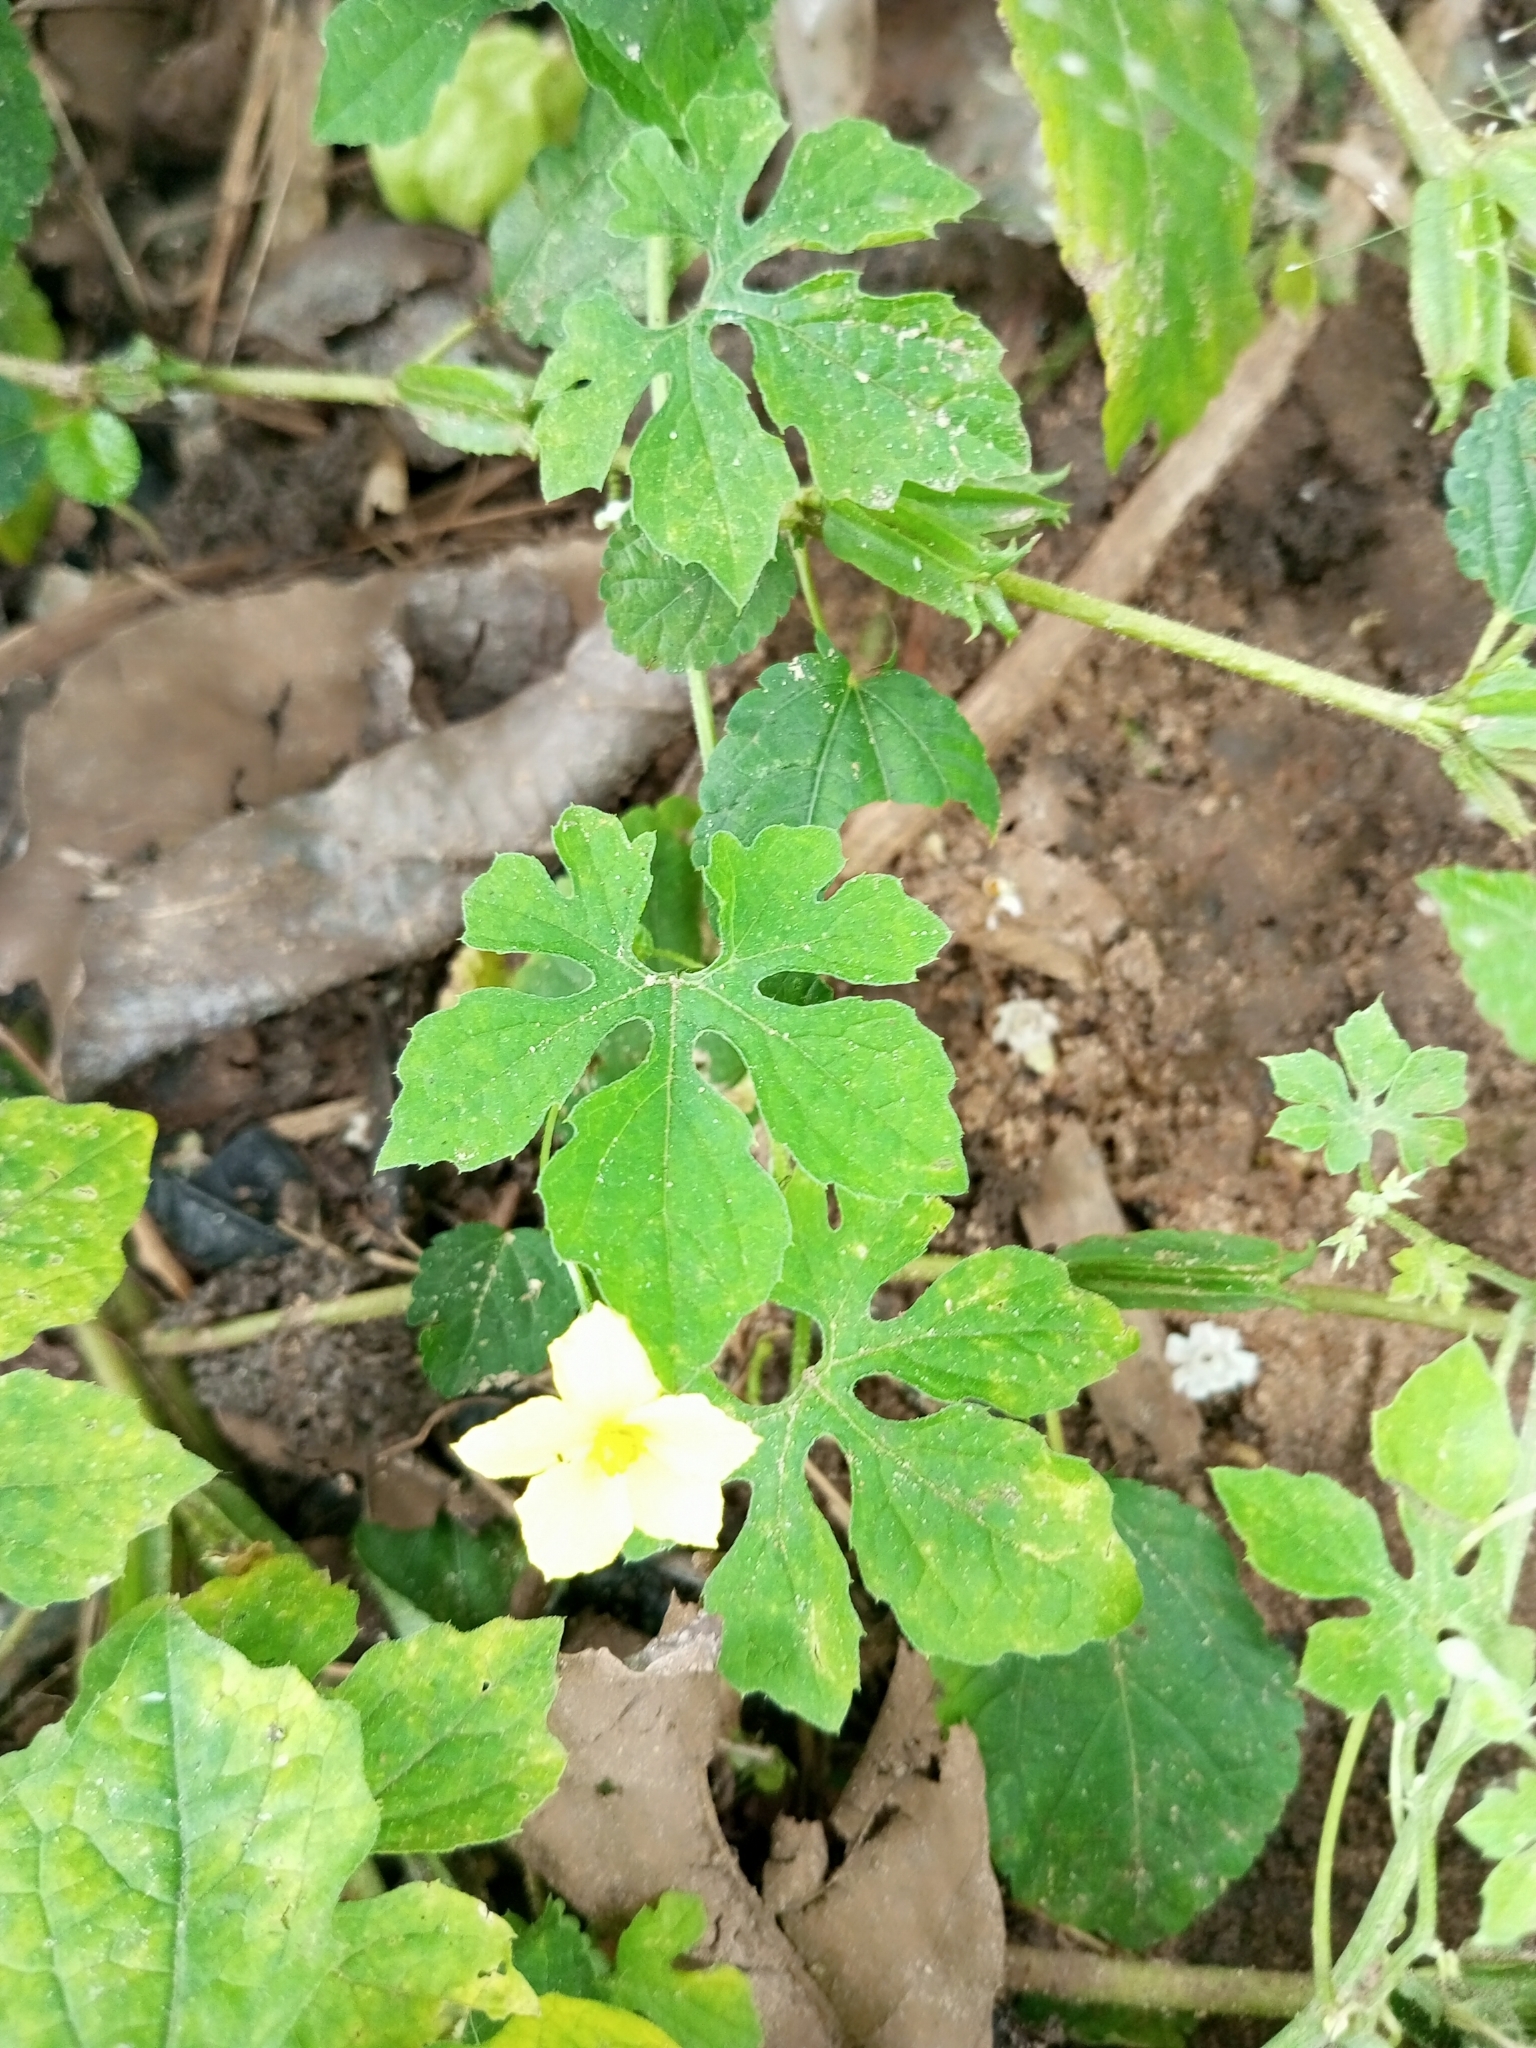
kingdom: Plantae
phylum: Tracheophyta
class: Magnoliopsida
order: Cucurbitales
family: Cucurbitaceae
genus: Momordica
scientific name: Momordica charantia
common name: Balsampear
